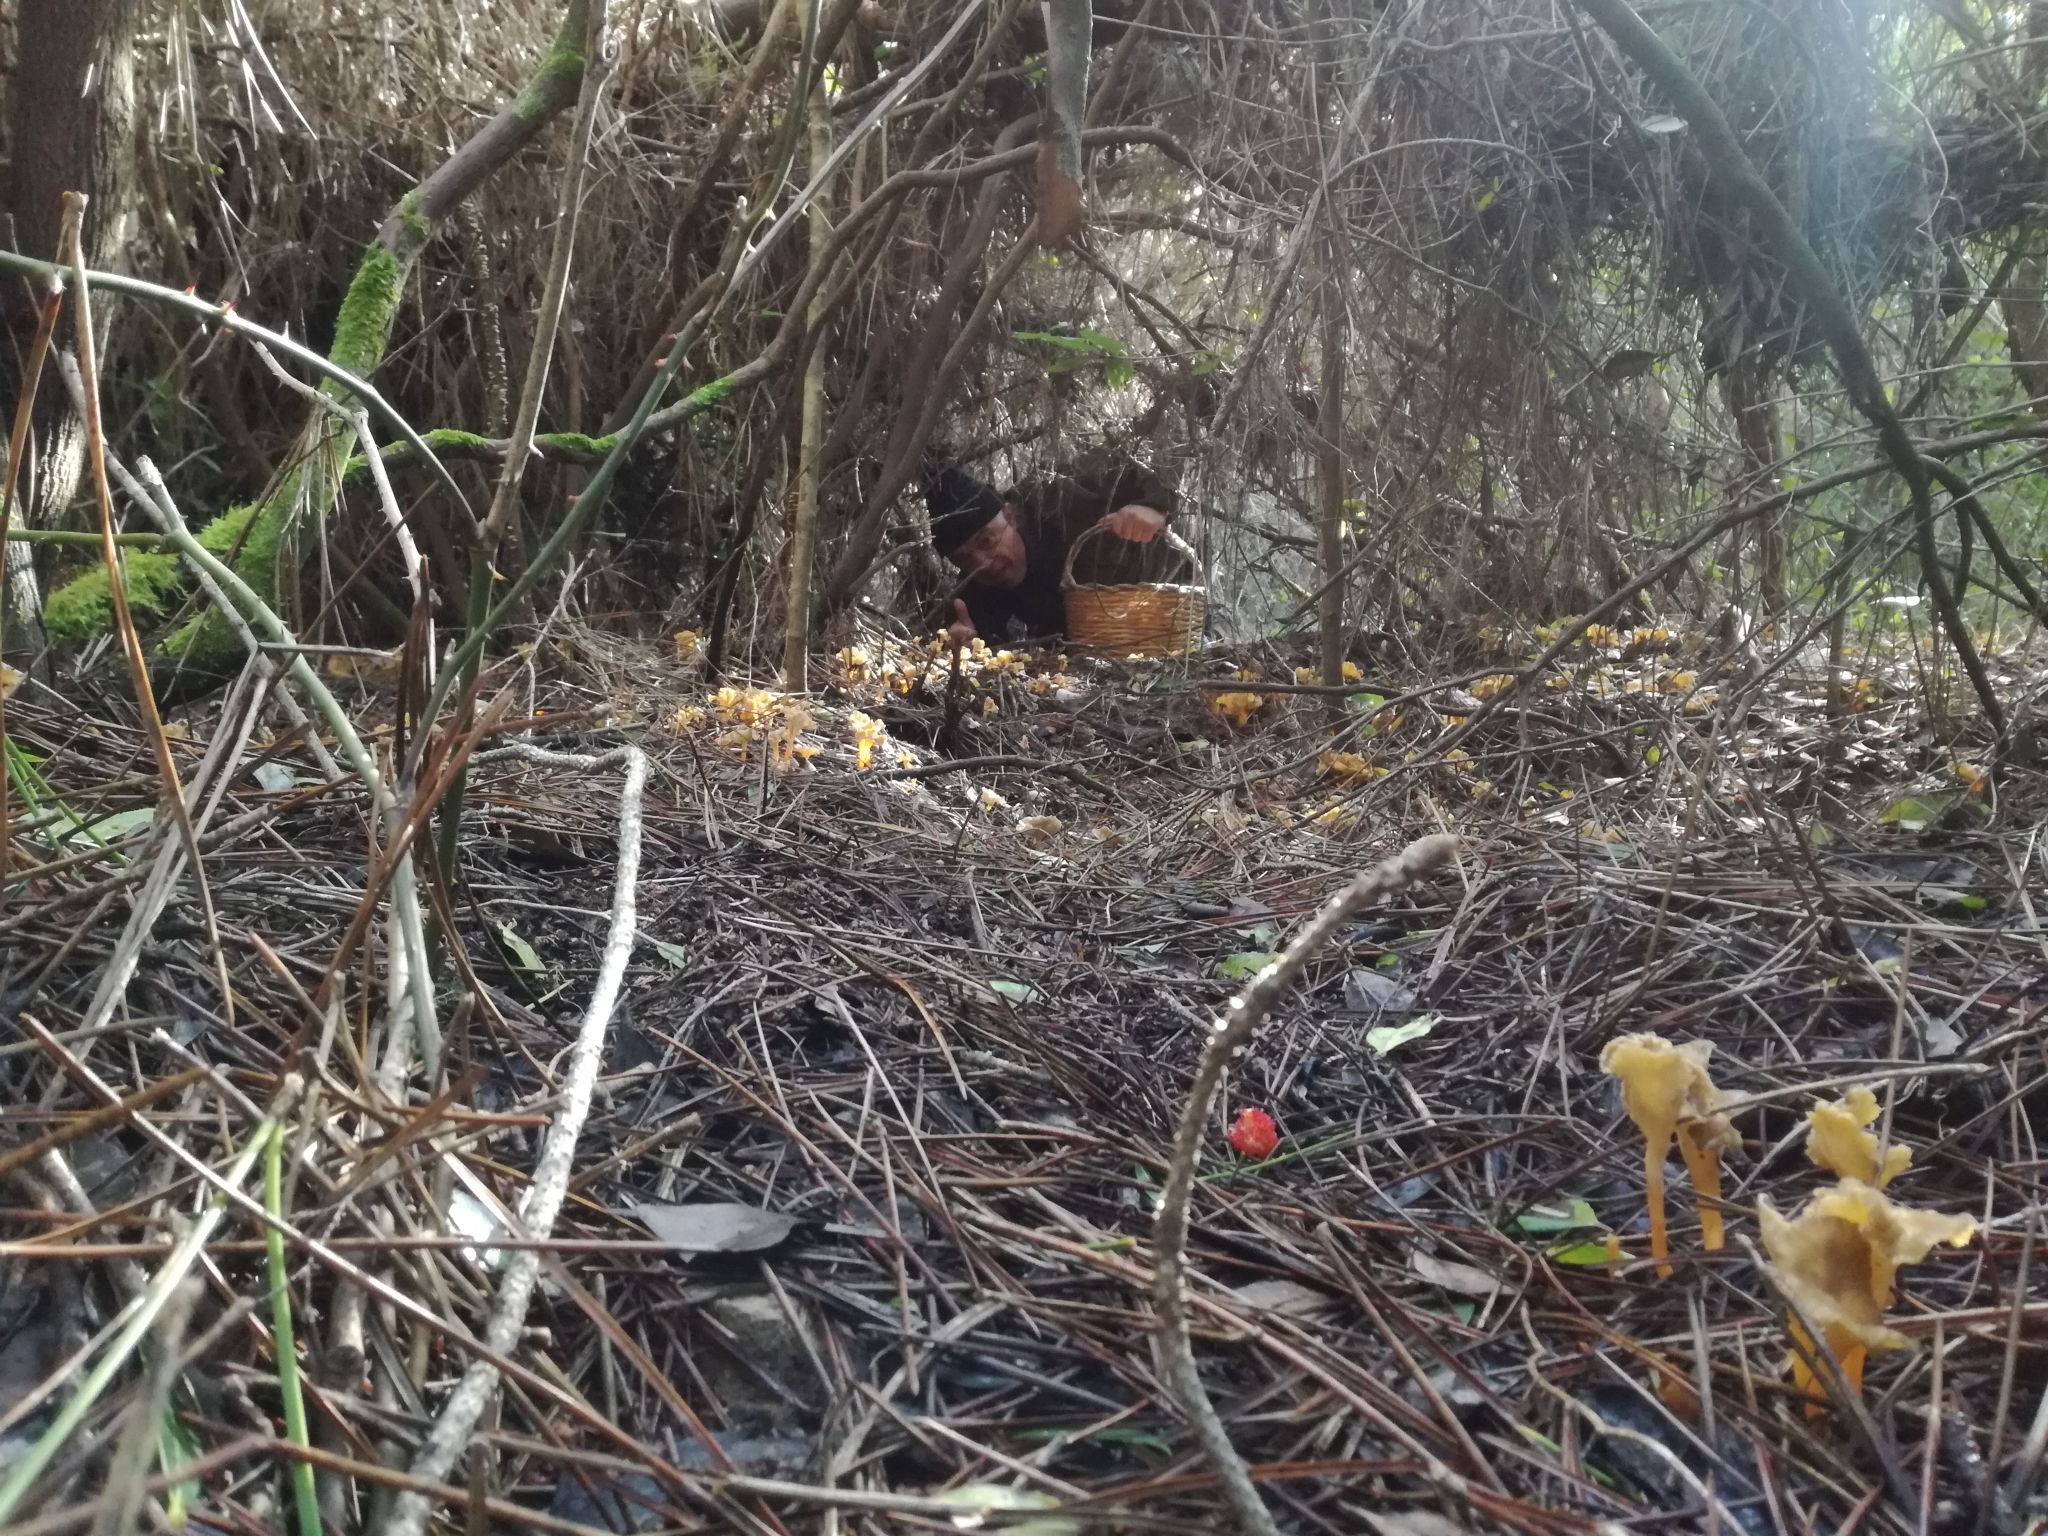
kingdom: Fungi
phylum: Basidiomycota
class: Agaricomycetes
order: Cantharellales
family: Hydnaceae
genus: Craterellus
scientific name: Craterellus lutescens
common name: Golden chanterelle
